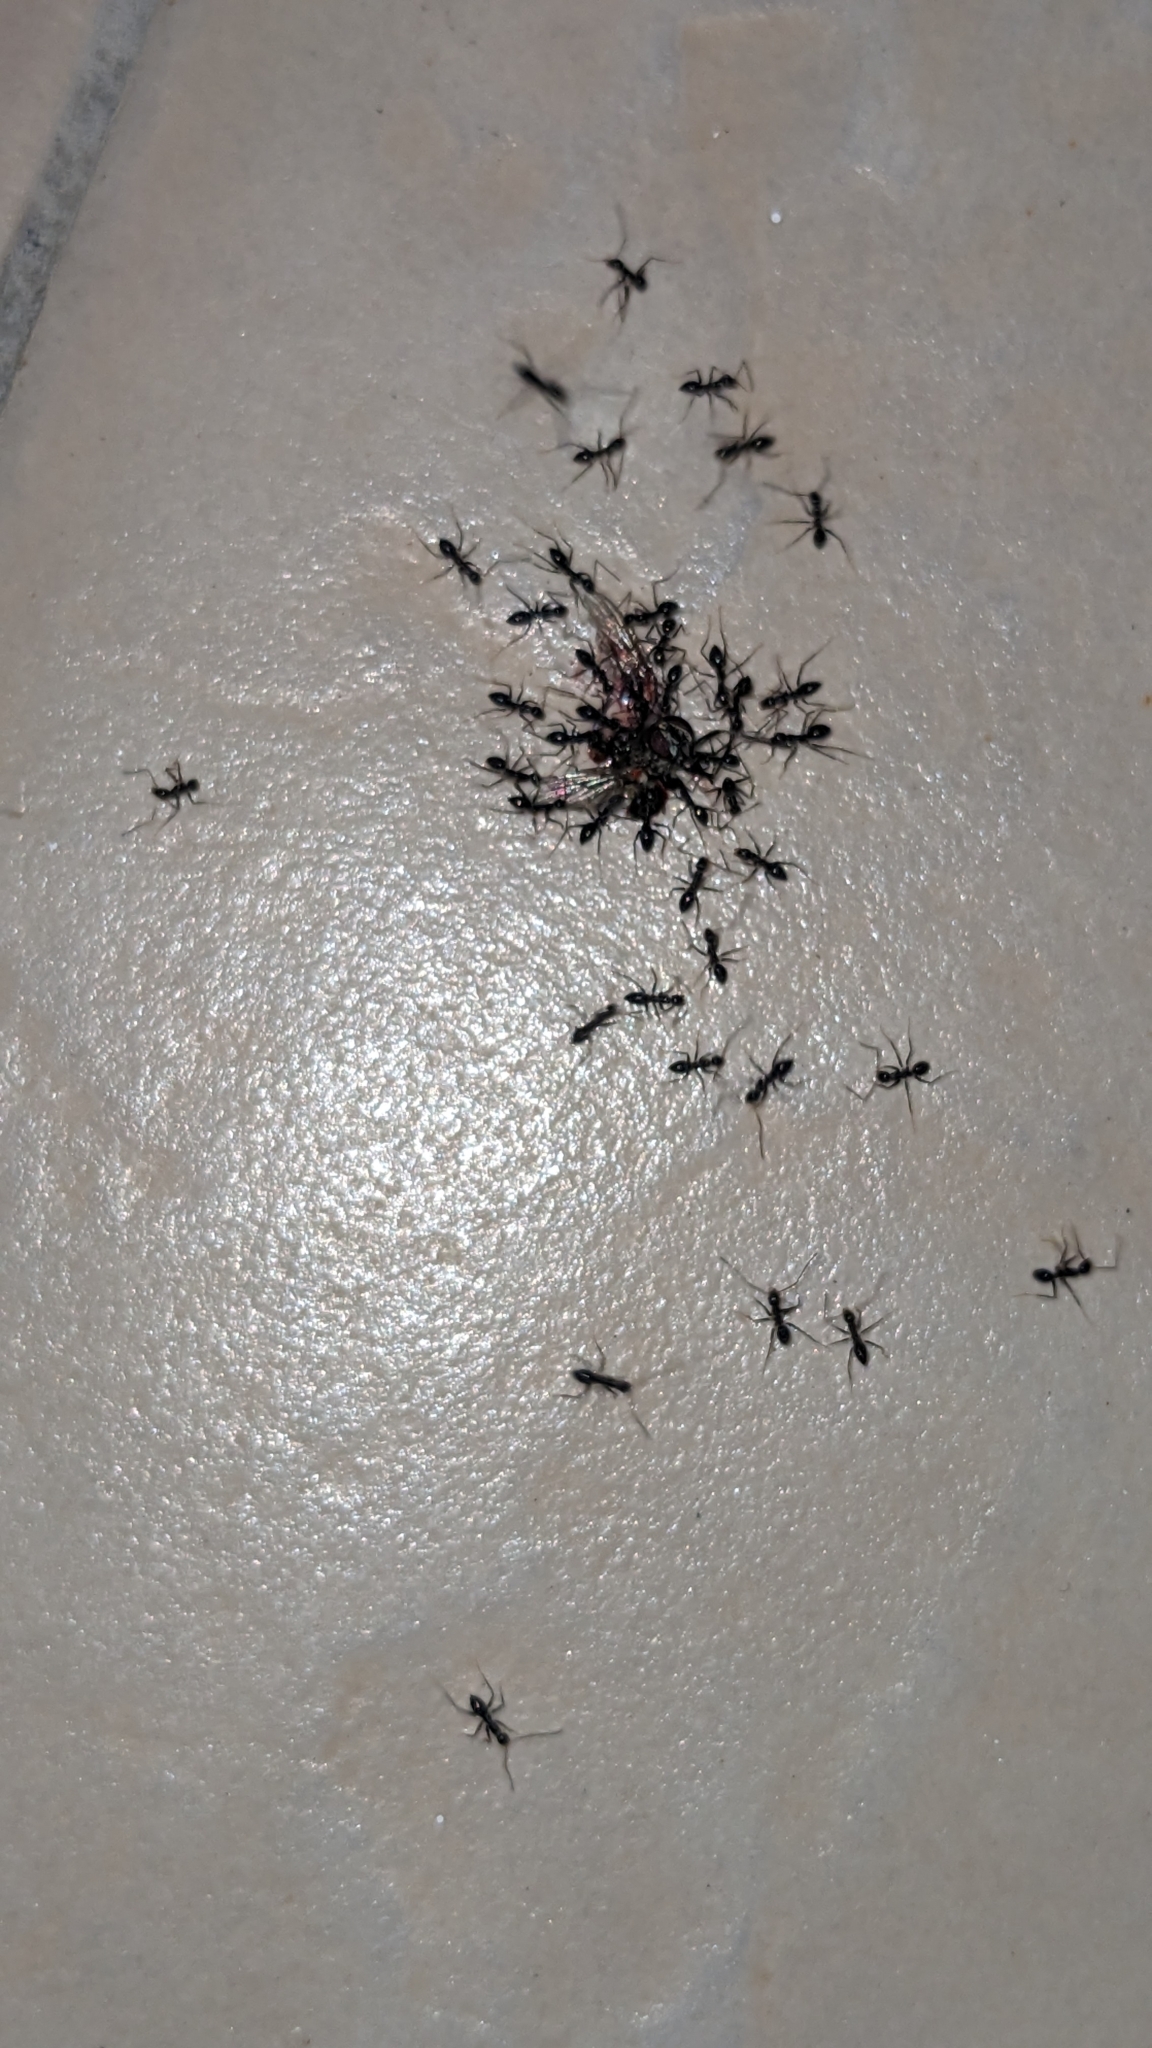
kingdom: Animalia
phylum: Arthropoda
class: Insecta
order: Hymenoptera
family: Formicidae
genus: Paratrechina
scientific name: Paratrechina longicornis
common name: Longhorned crazy ant
